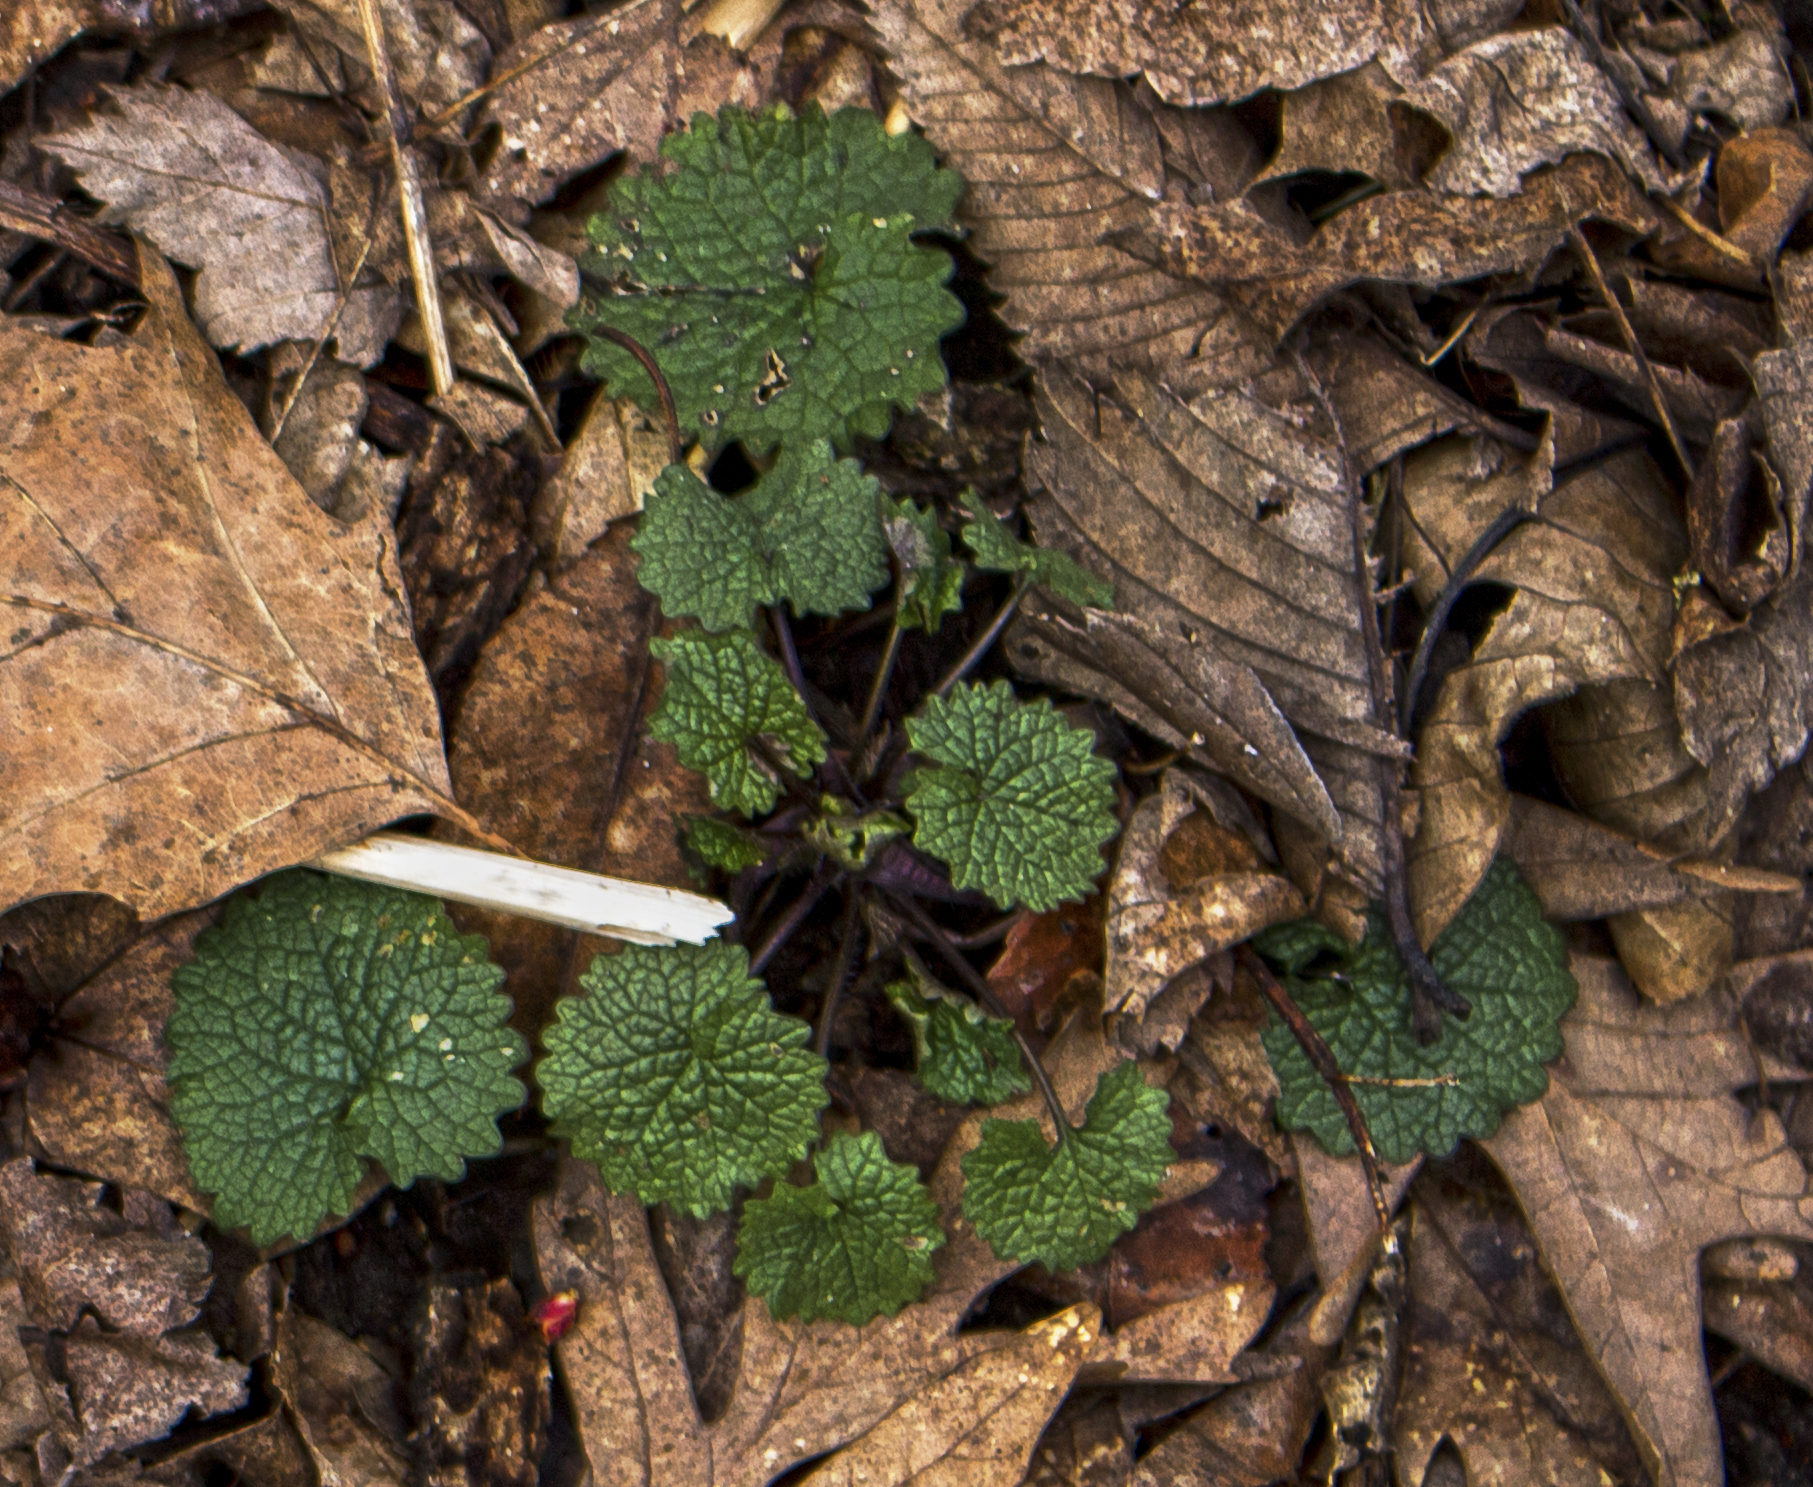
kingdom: Plantae
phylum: Tracheophyta
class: Magnoliopsida
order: Brassicales
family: Brassicaceae
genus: Alliaria
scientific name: Alliaria petiolata
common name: Garlic mustard
